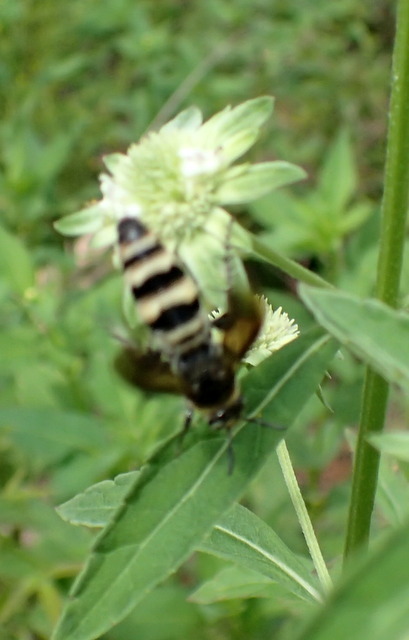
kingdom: Animalia
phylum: Arthropoda
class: Insecta
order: Hymenoptera
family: Scoliidae
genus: Dielis
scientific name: Dielis
